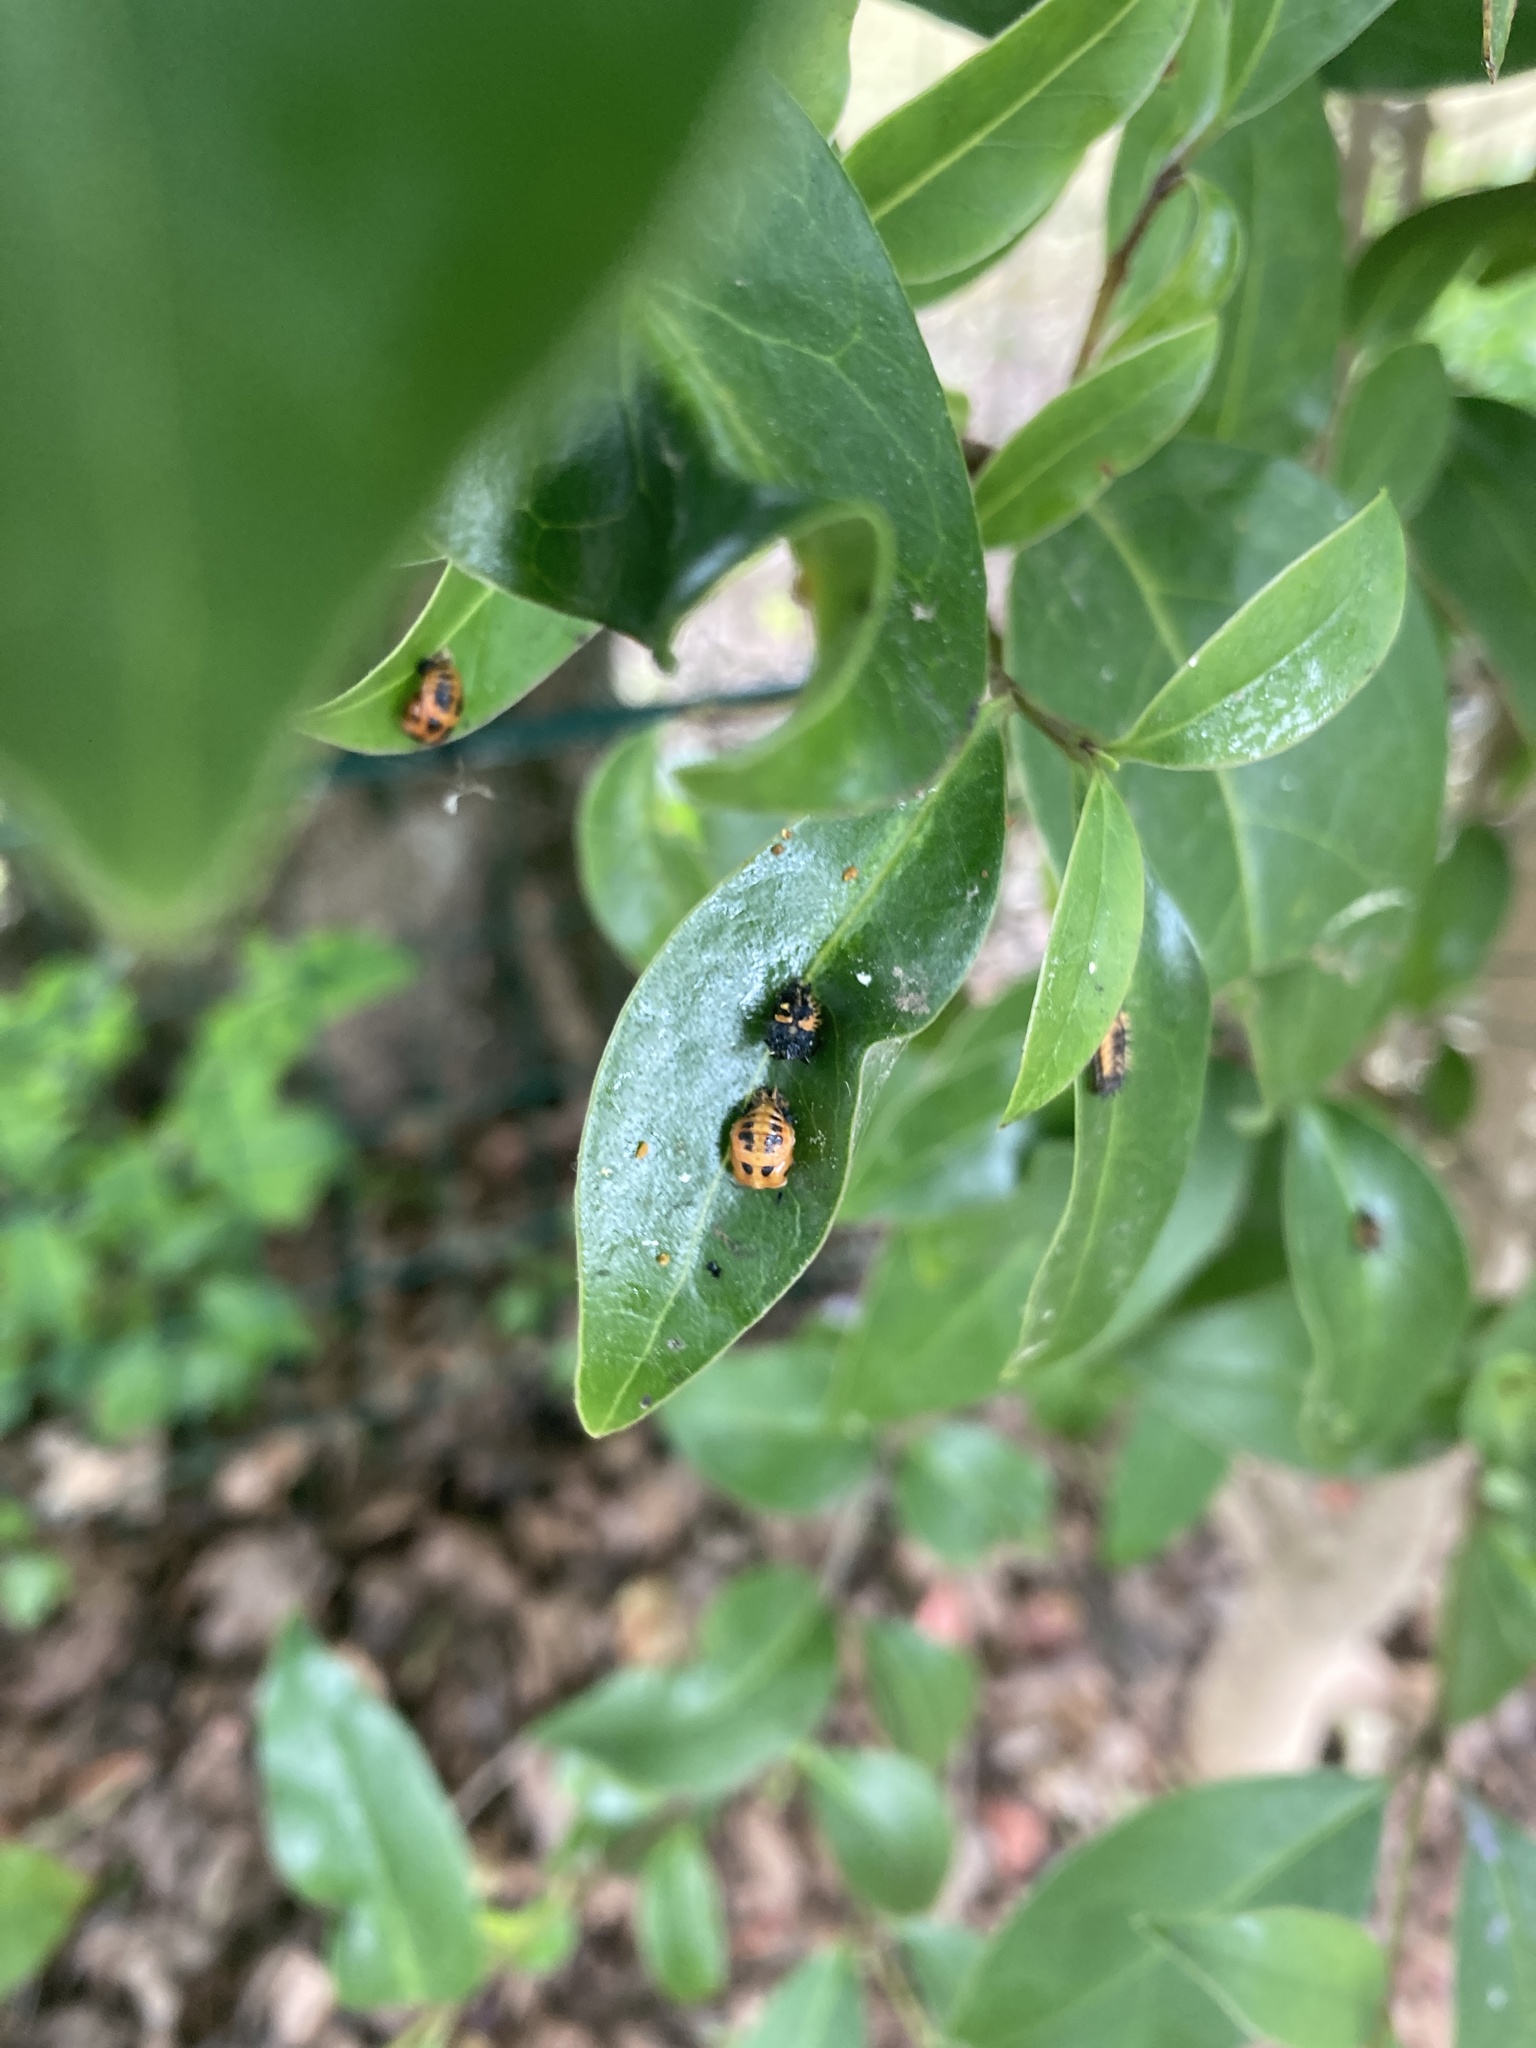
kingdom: Animalia
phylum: Arthropoda
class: Insecta
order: Coleoptera
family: Coccinellidae
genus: Harmonia
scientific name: Harmonia axyridis
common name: Harlequin ladybird
